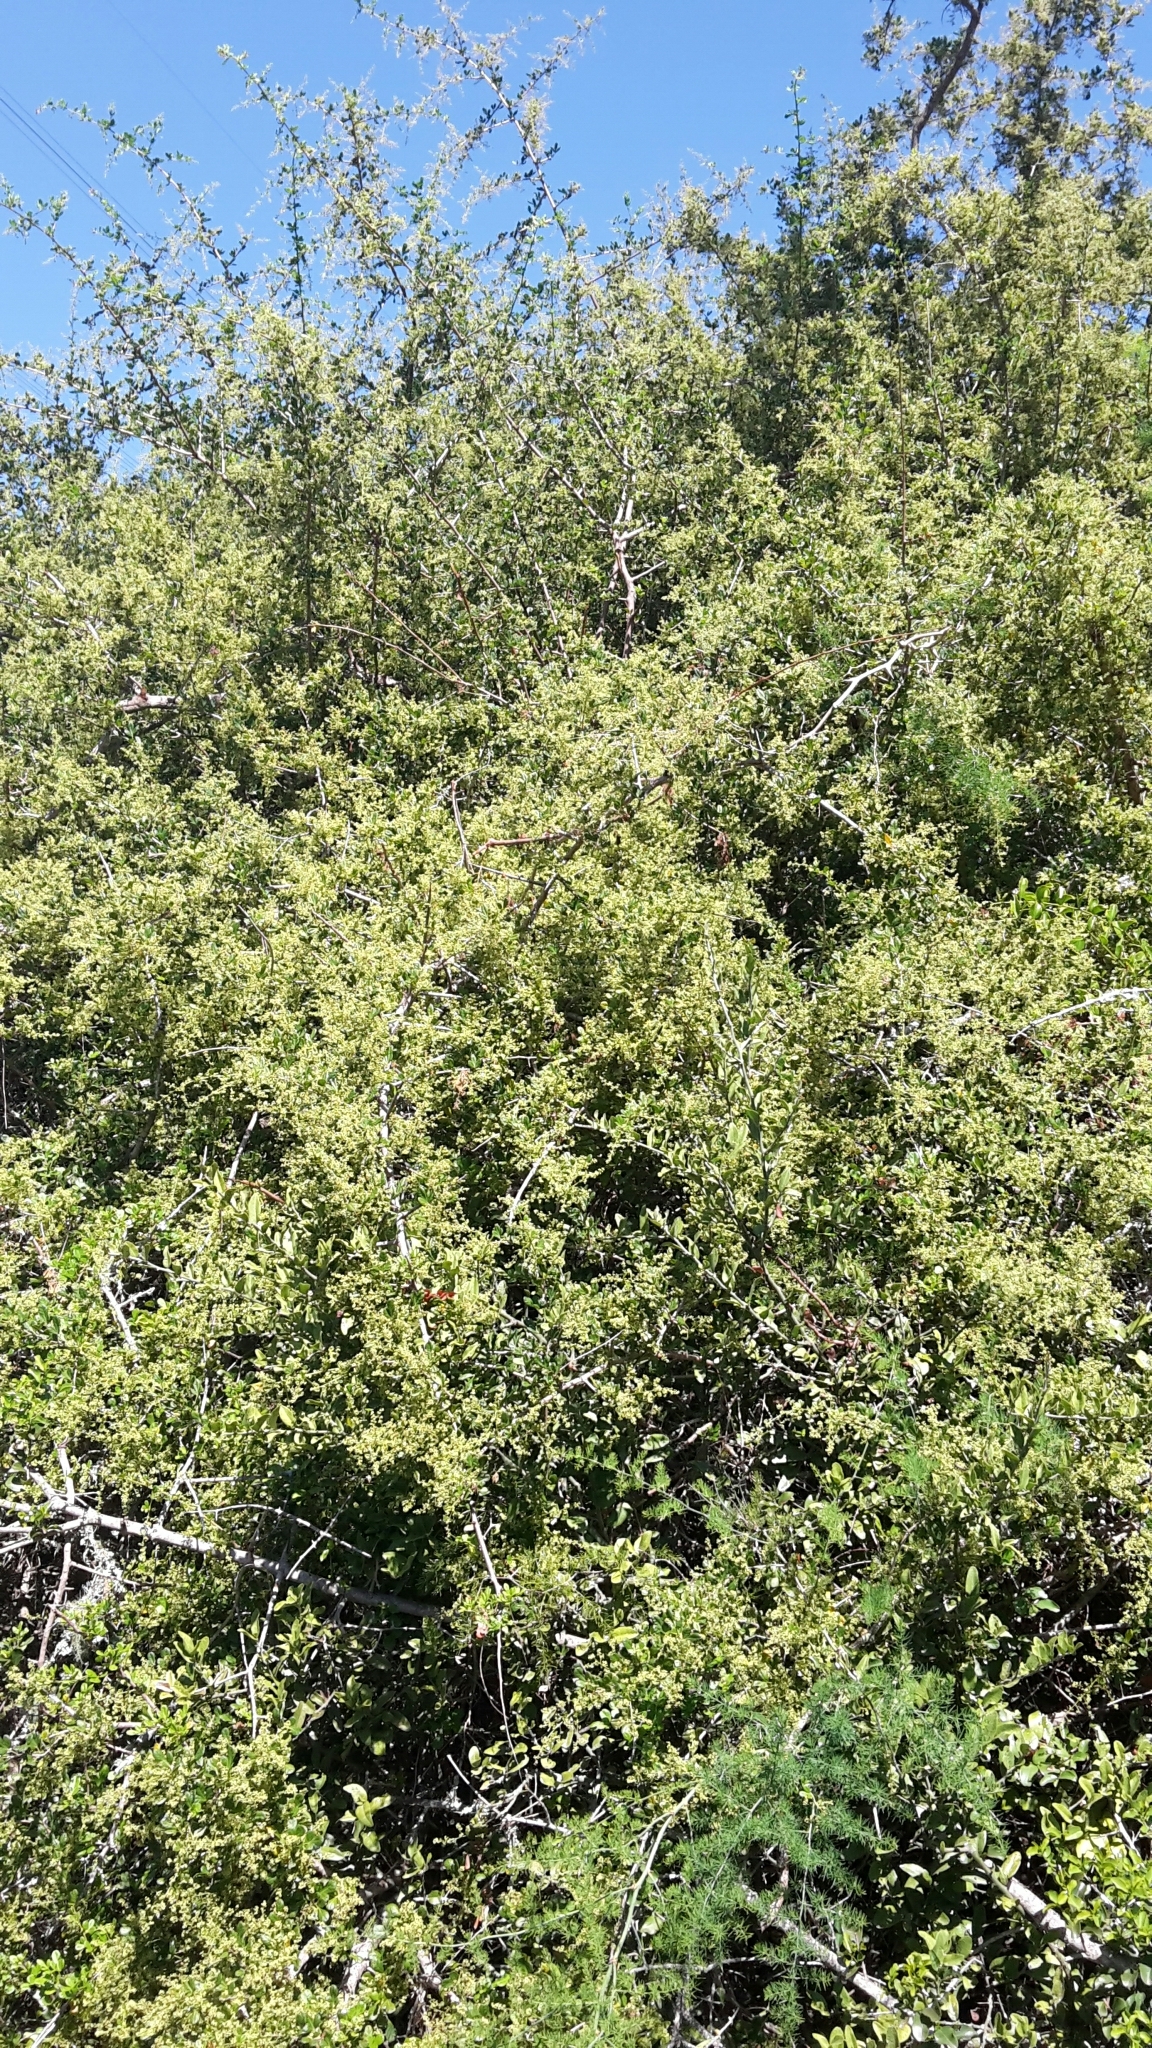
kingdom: Plantae
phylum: Tracheophyta
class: Magnoliopsida
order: Sapindales
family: Anacardiaceae
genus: Searsia
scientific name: Searsia refracta
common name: Thorny crow-berry
